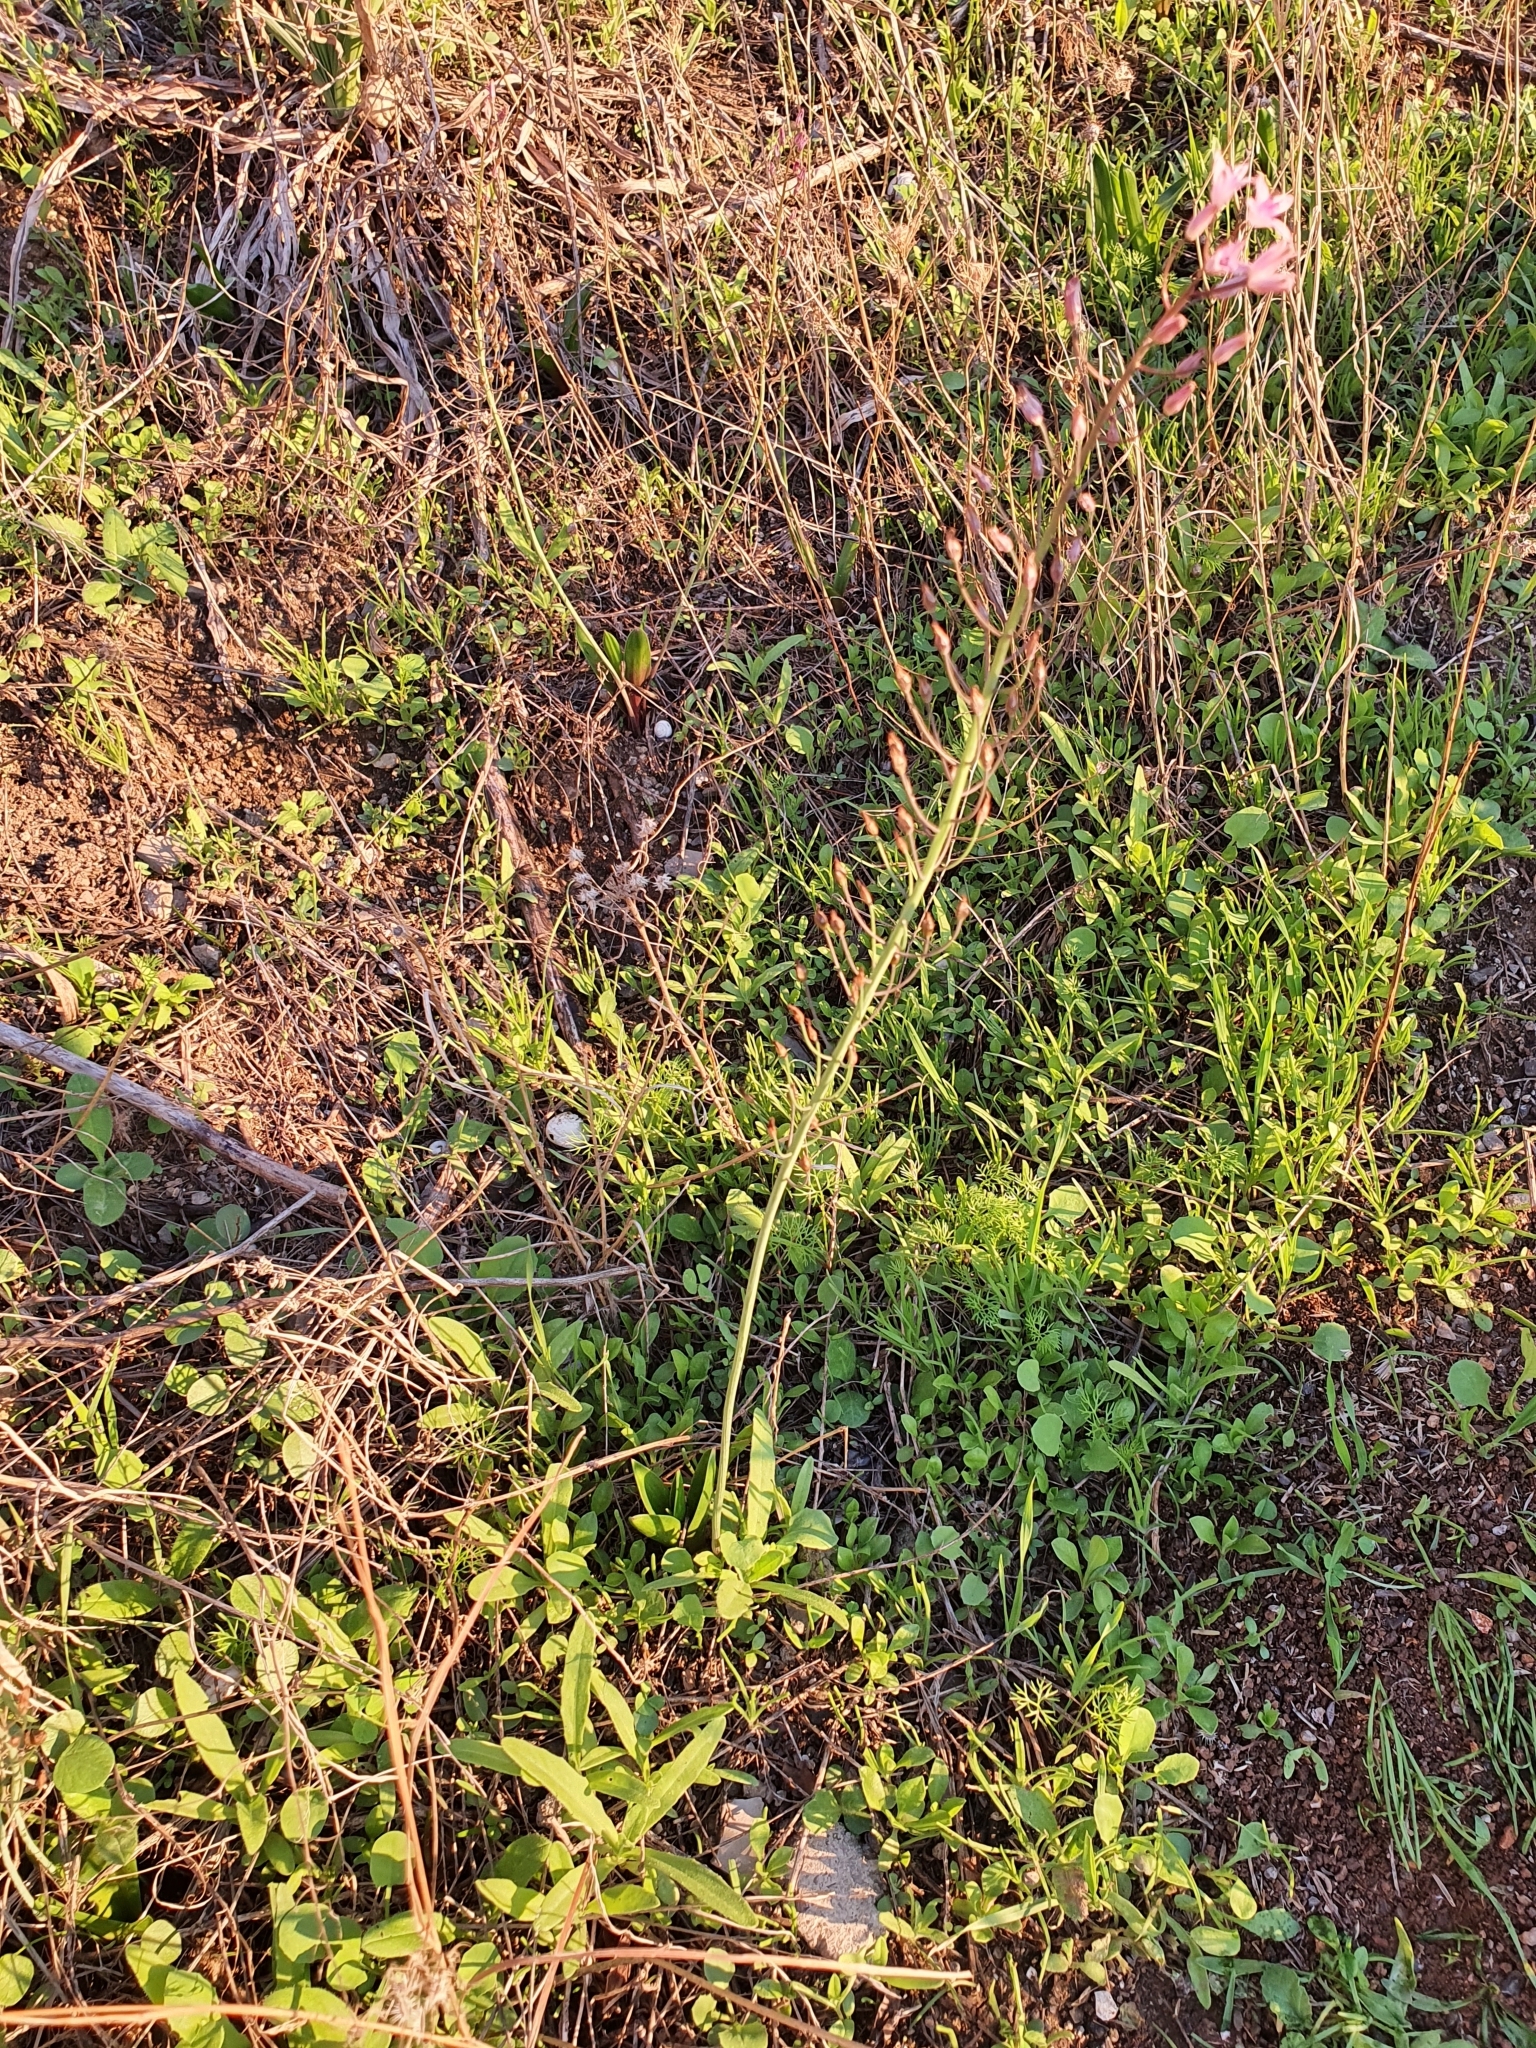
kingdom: Plantae
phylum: Tracheophyta
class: Liliopsida
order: Asparagales
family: Asparagaceae
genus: Prospero
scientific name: Prospero obtusifolium
